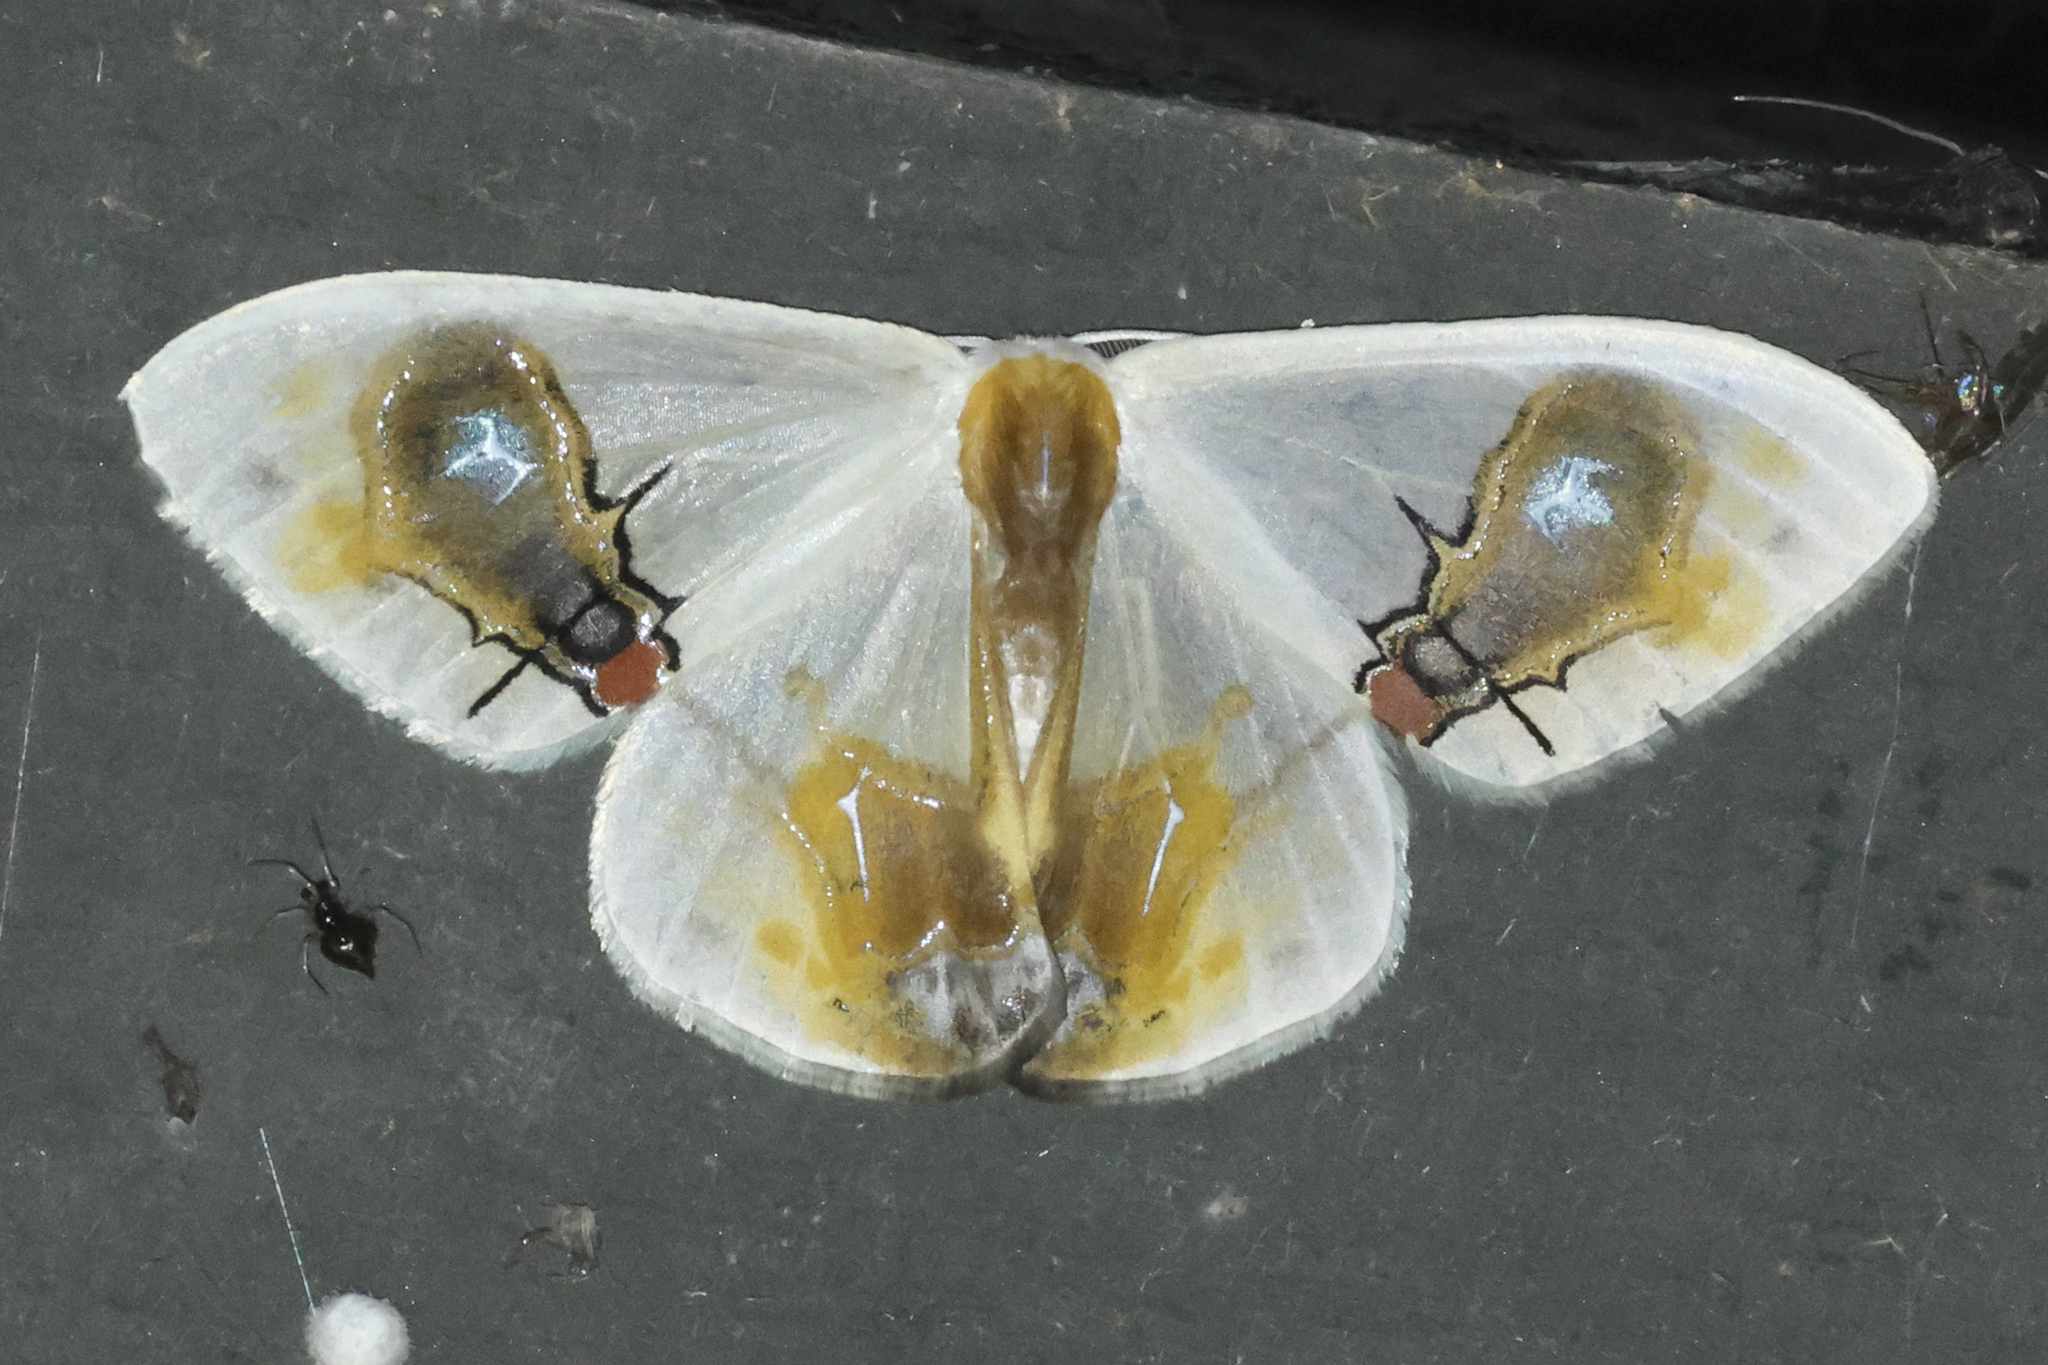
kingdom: Animalia
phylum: Arthropoda
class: Insecta
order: Lepidoptera
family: Drepanidae
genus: Macrocilix
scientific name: Macrocilix maia
